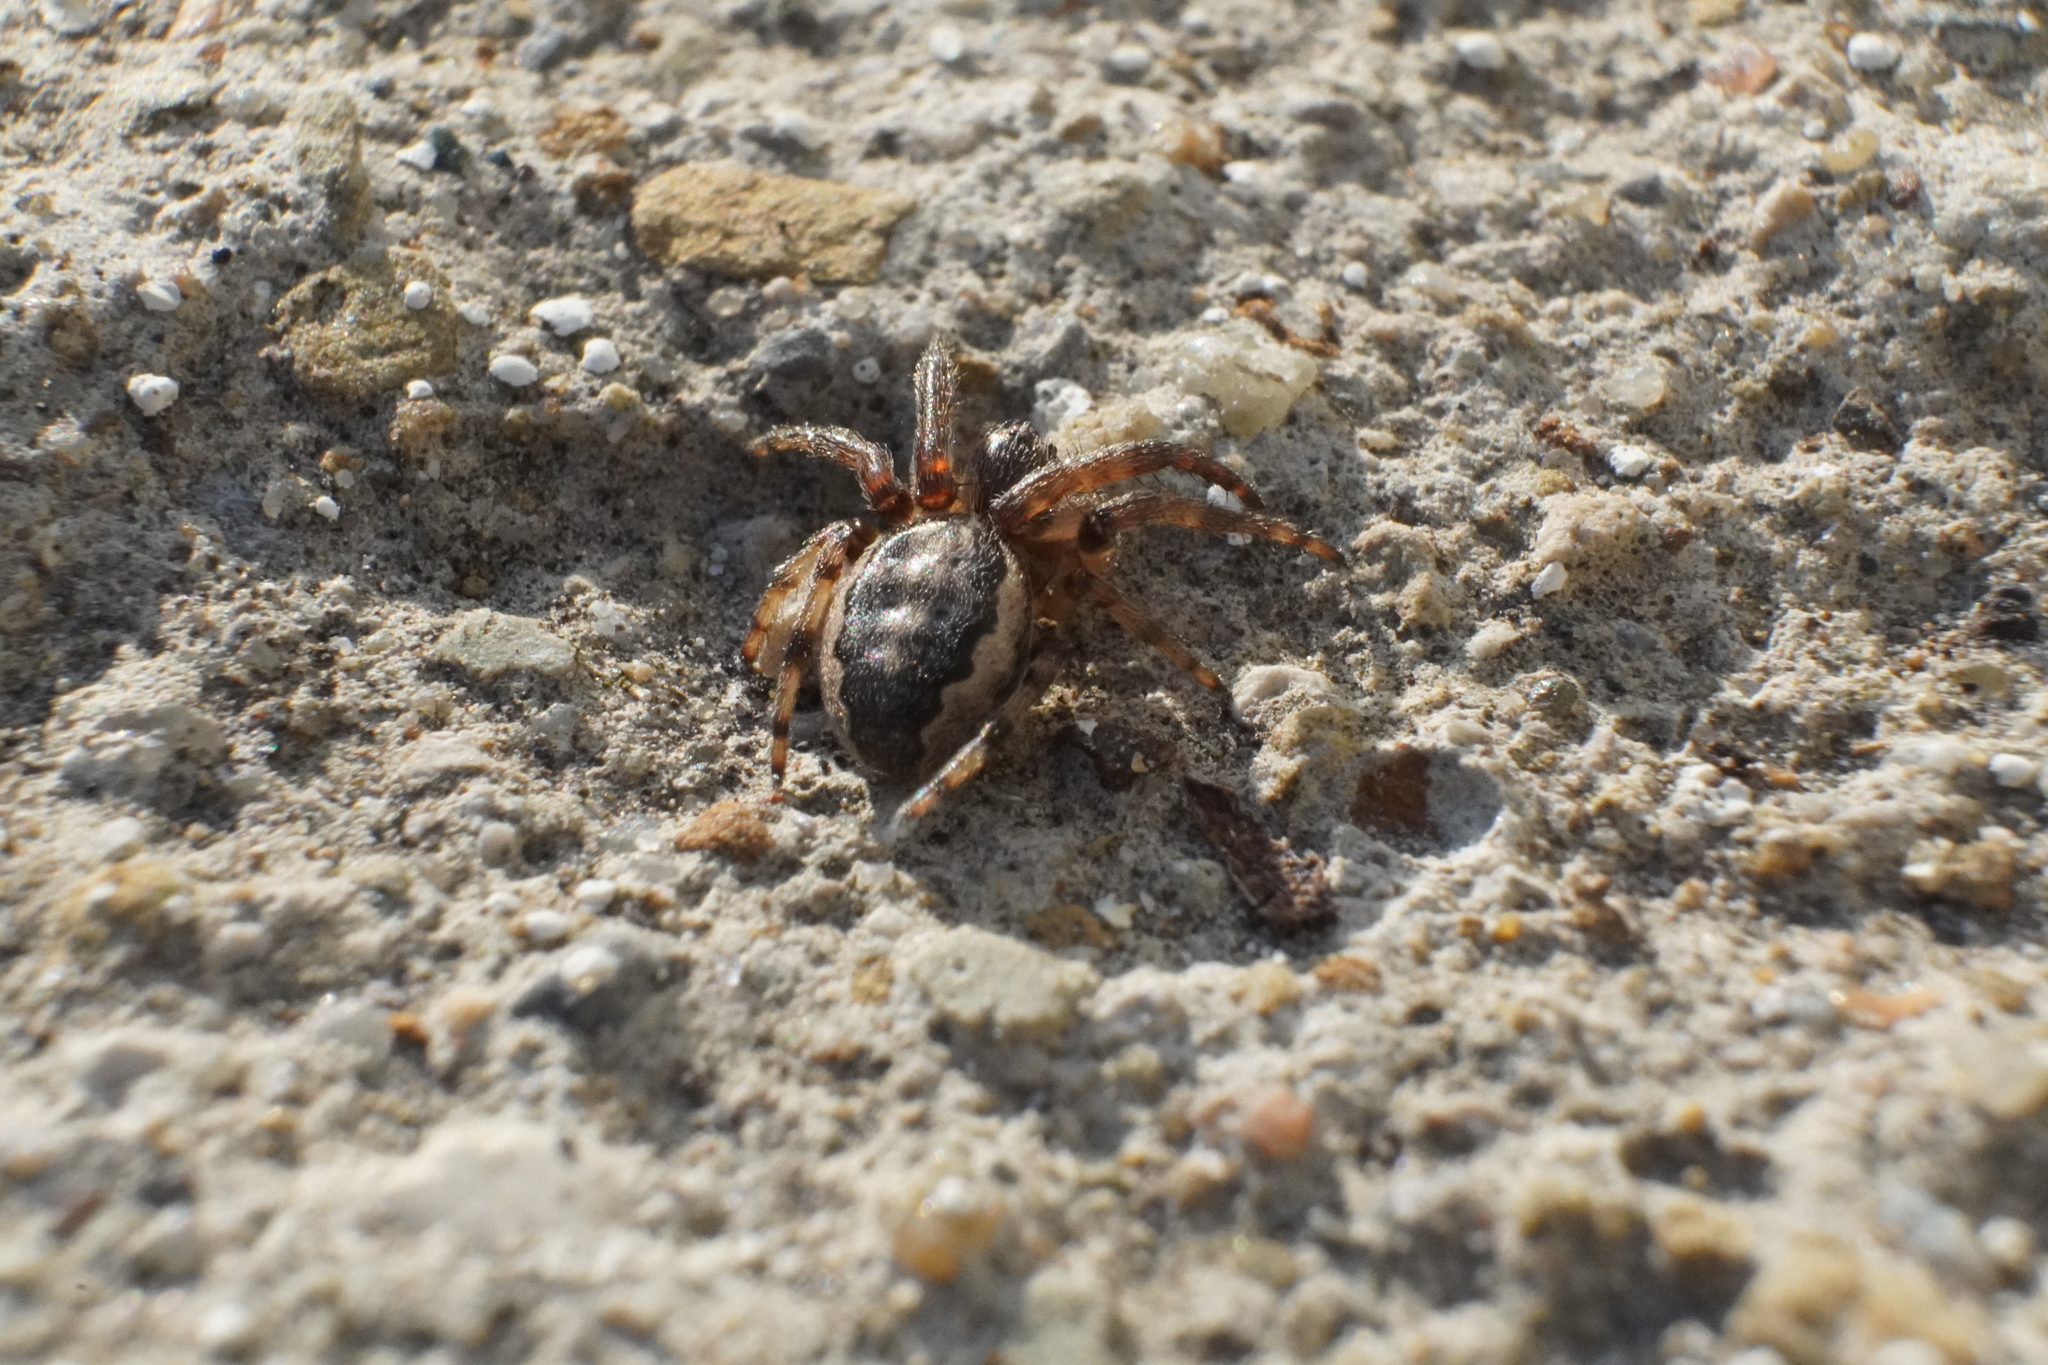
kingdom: Animalia
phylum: Arthropoda
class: Arachnida
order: Araneae
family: Araneidae
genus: Larinioides
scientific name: Larinioides cornutus
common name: Furrow orbweaver
